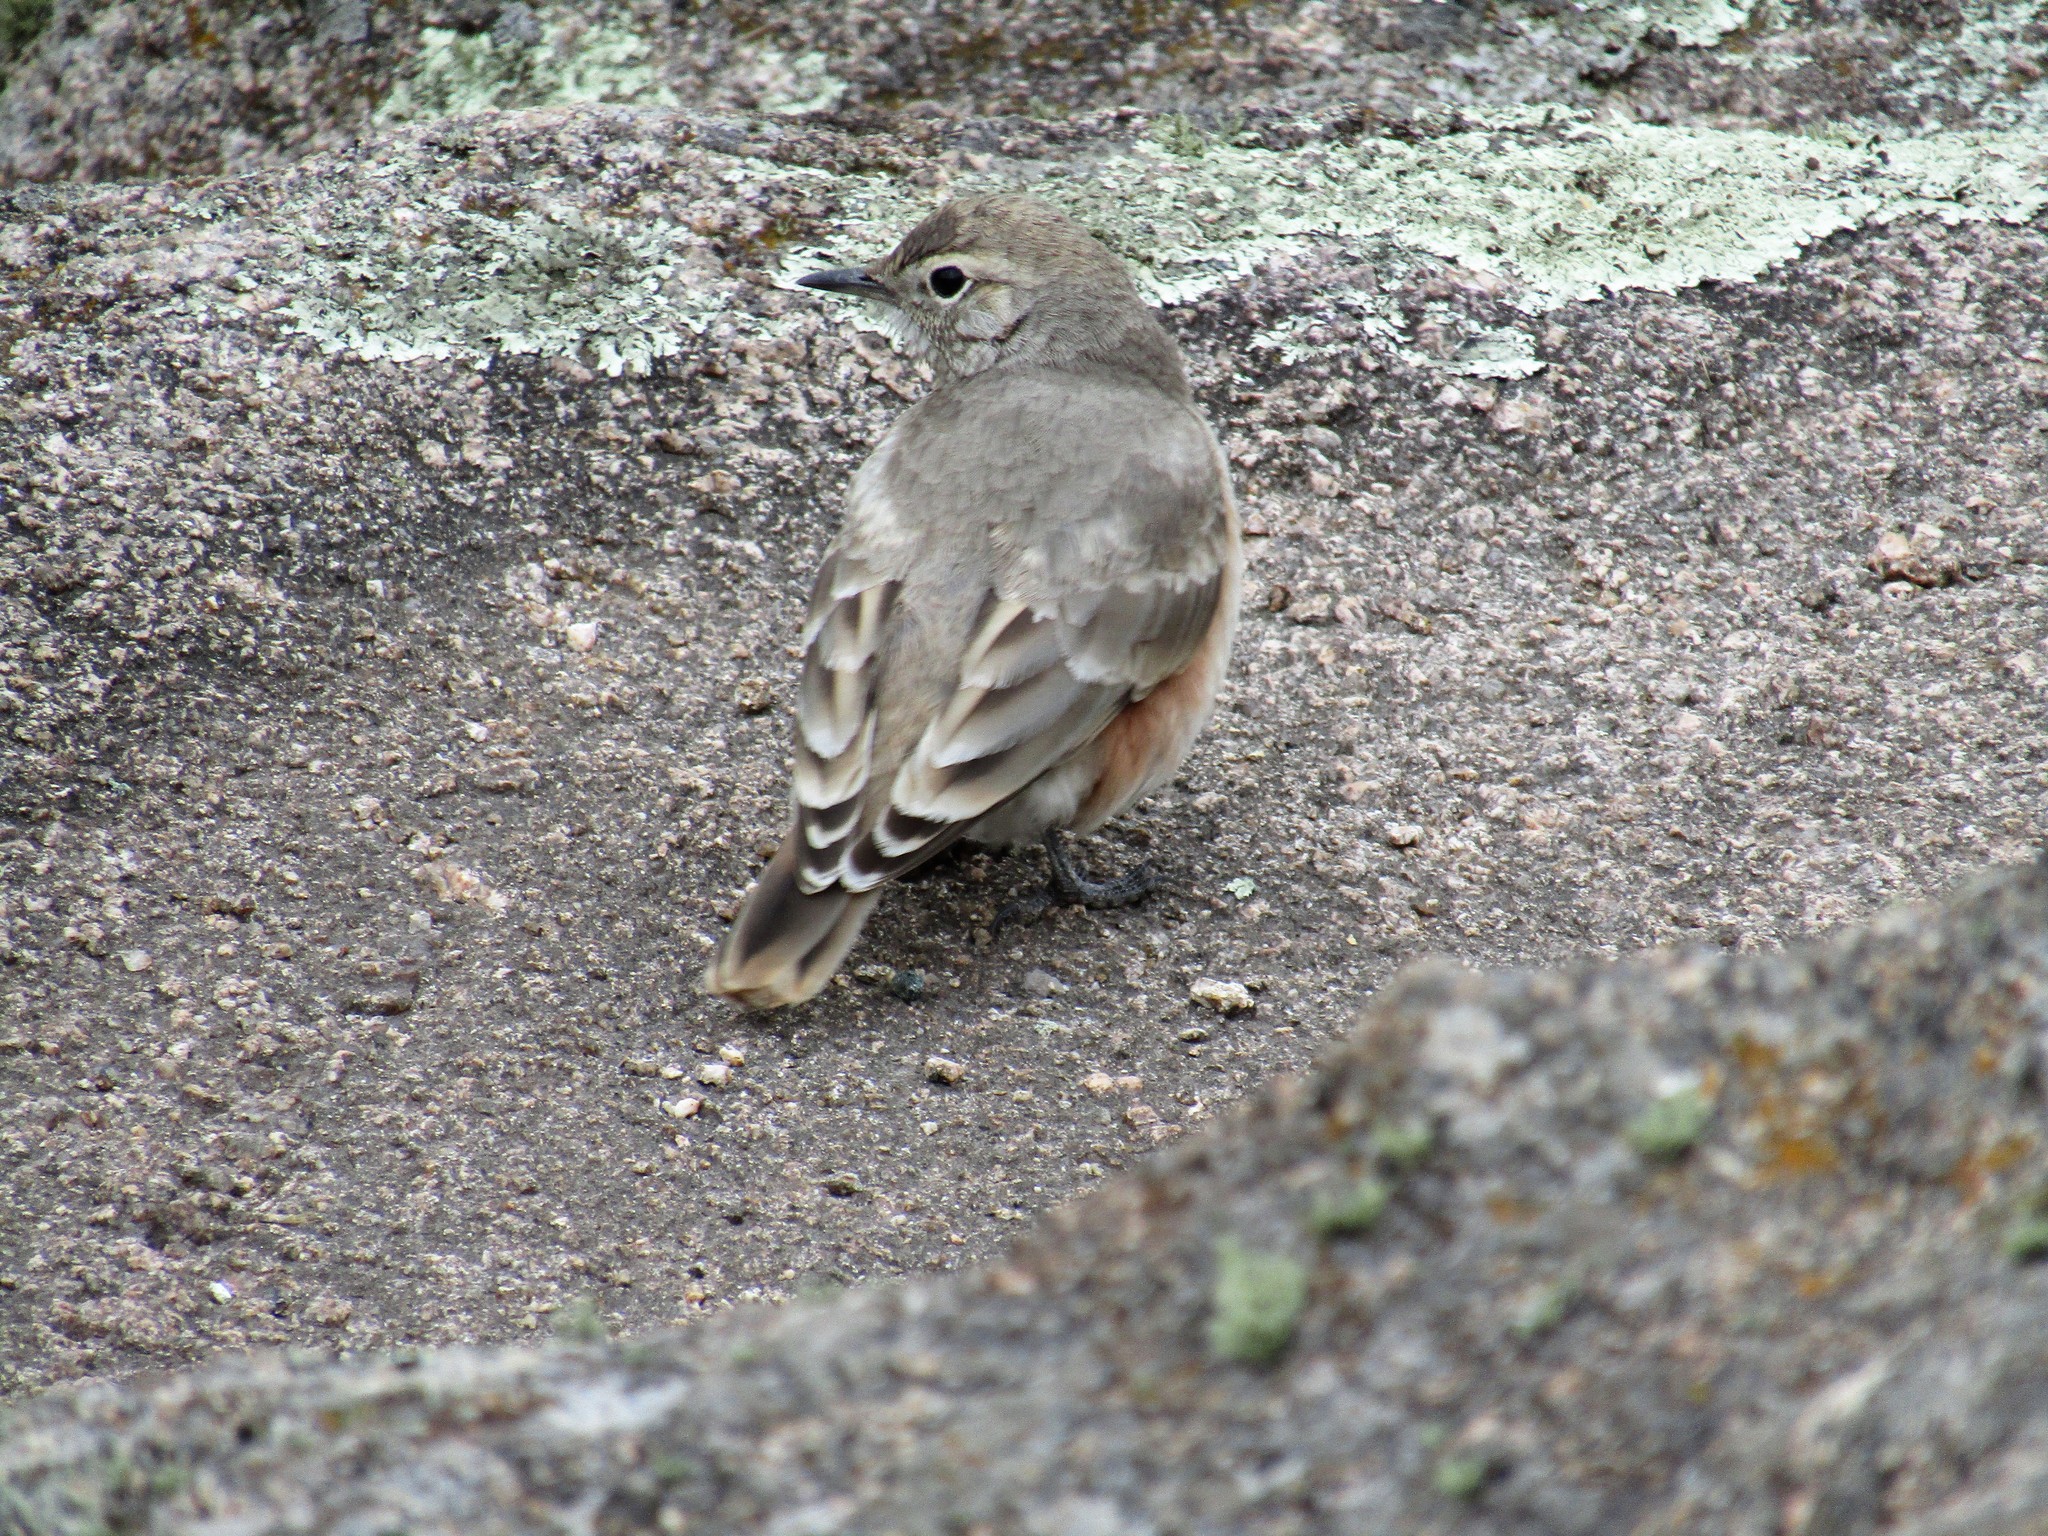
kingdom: Animalia
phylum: Chordata
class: Aves
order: Passeriformes
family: Furnariidae
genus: Geositta
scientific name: Geositta rufipennis
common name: Rufous-banded miner
